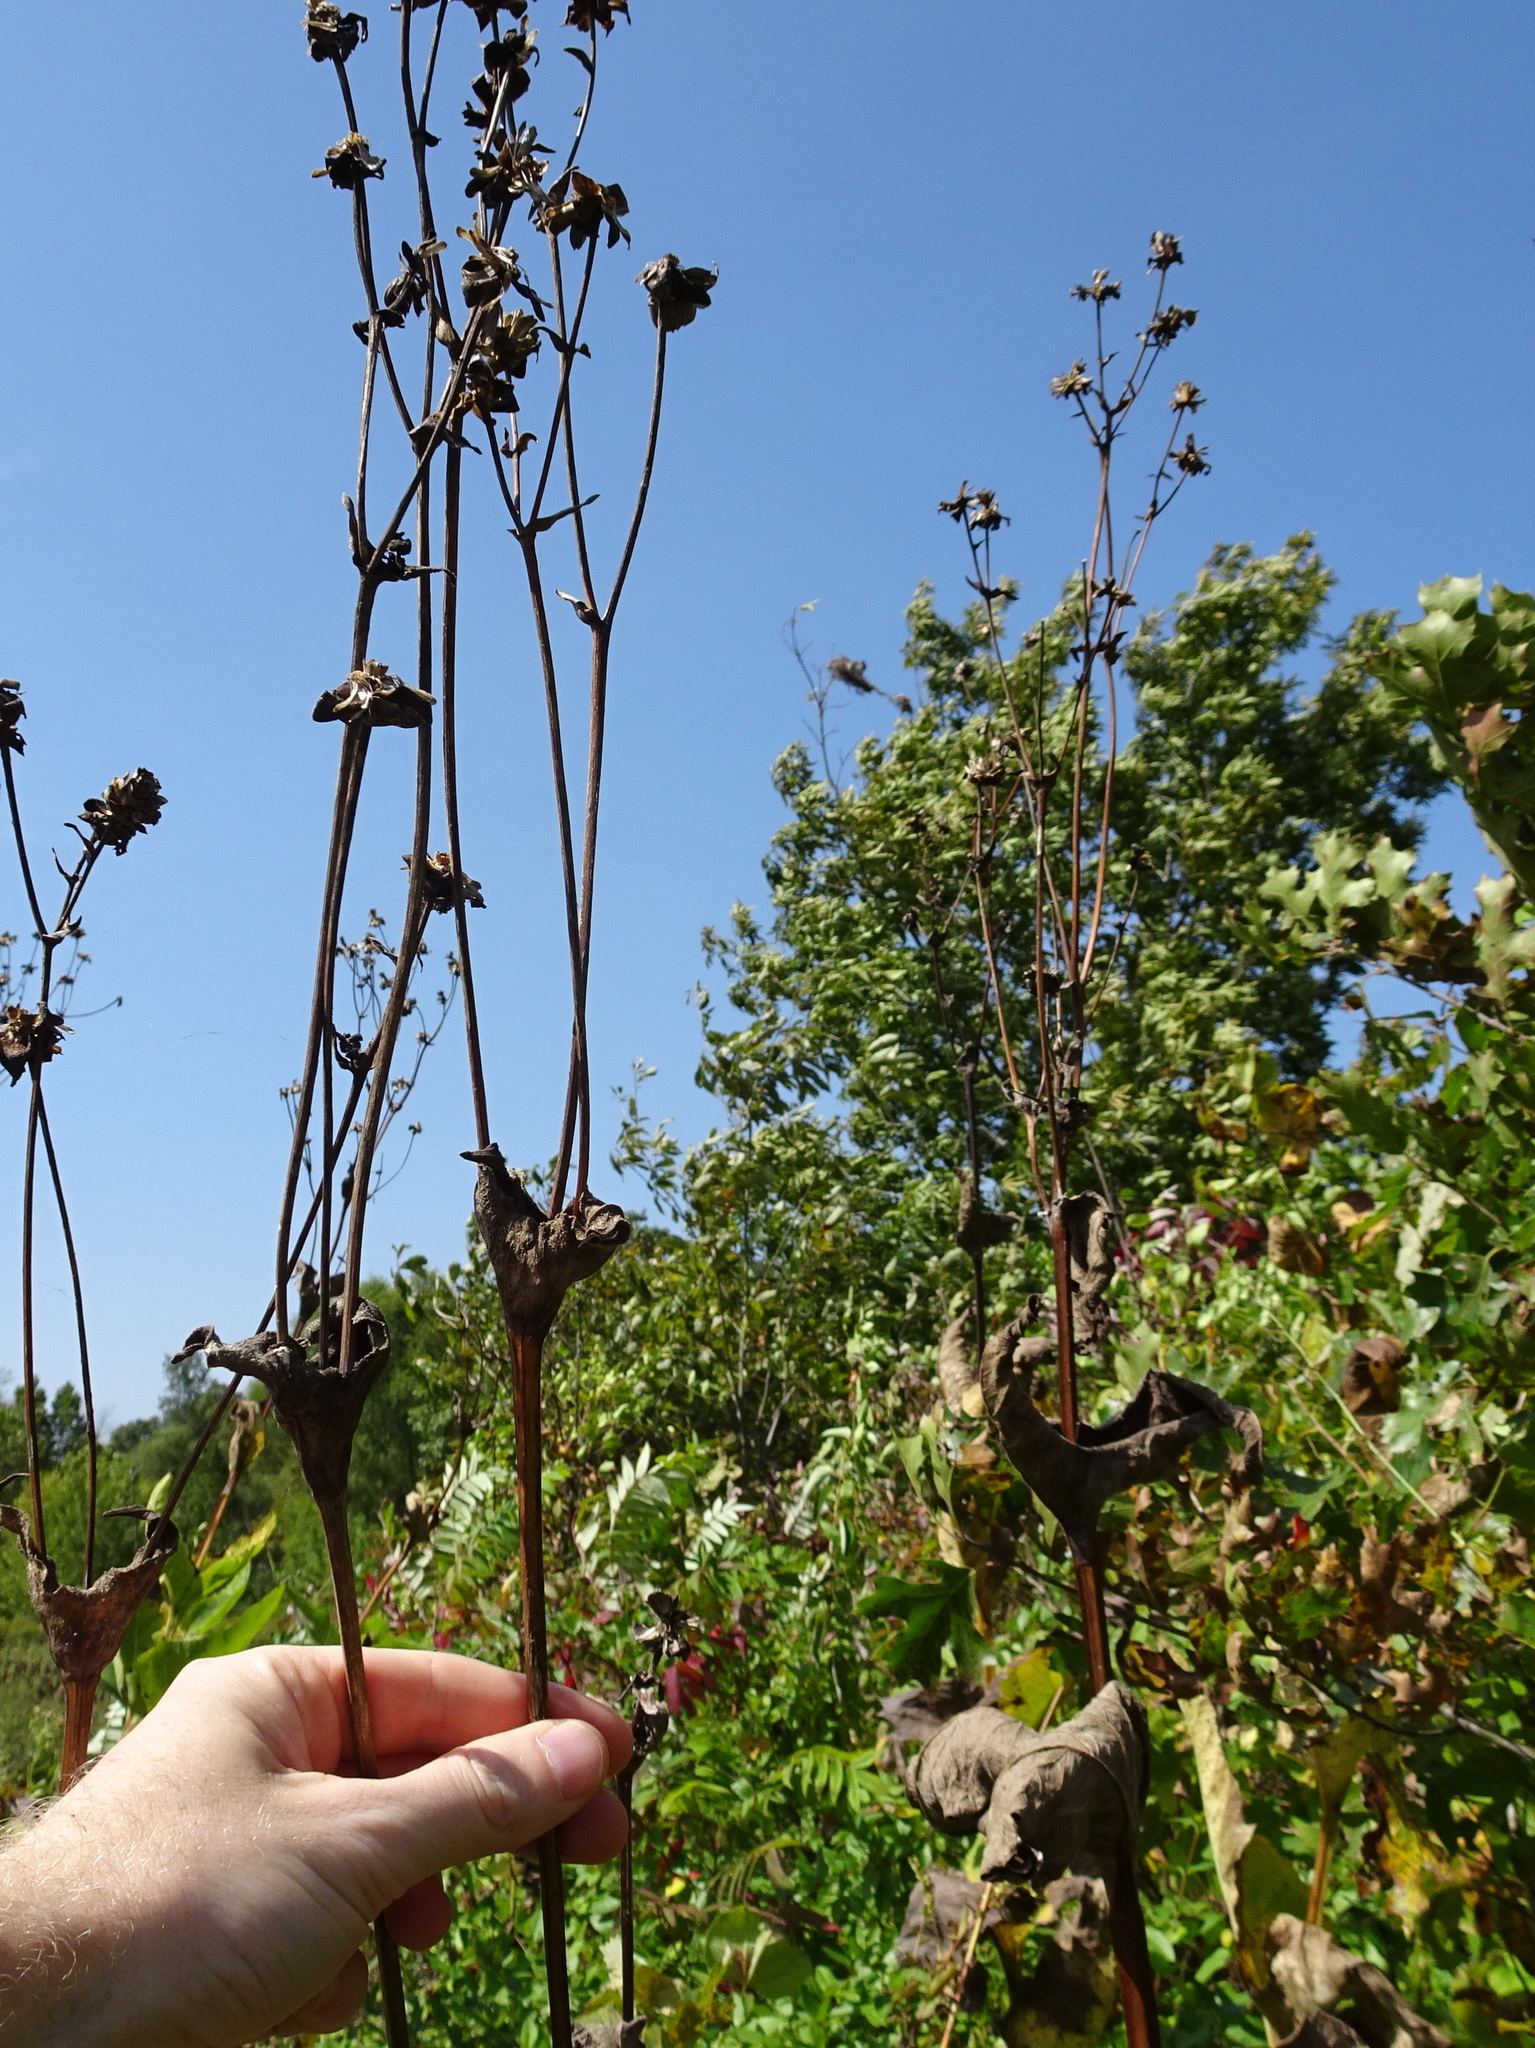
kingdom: Plantae
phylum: Tracheophyta
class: Magnoliopsida
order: Asterales
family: Asteraceae
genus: Silphium
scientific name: Silphium perfoliatum
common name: Cup-plant
